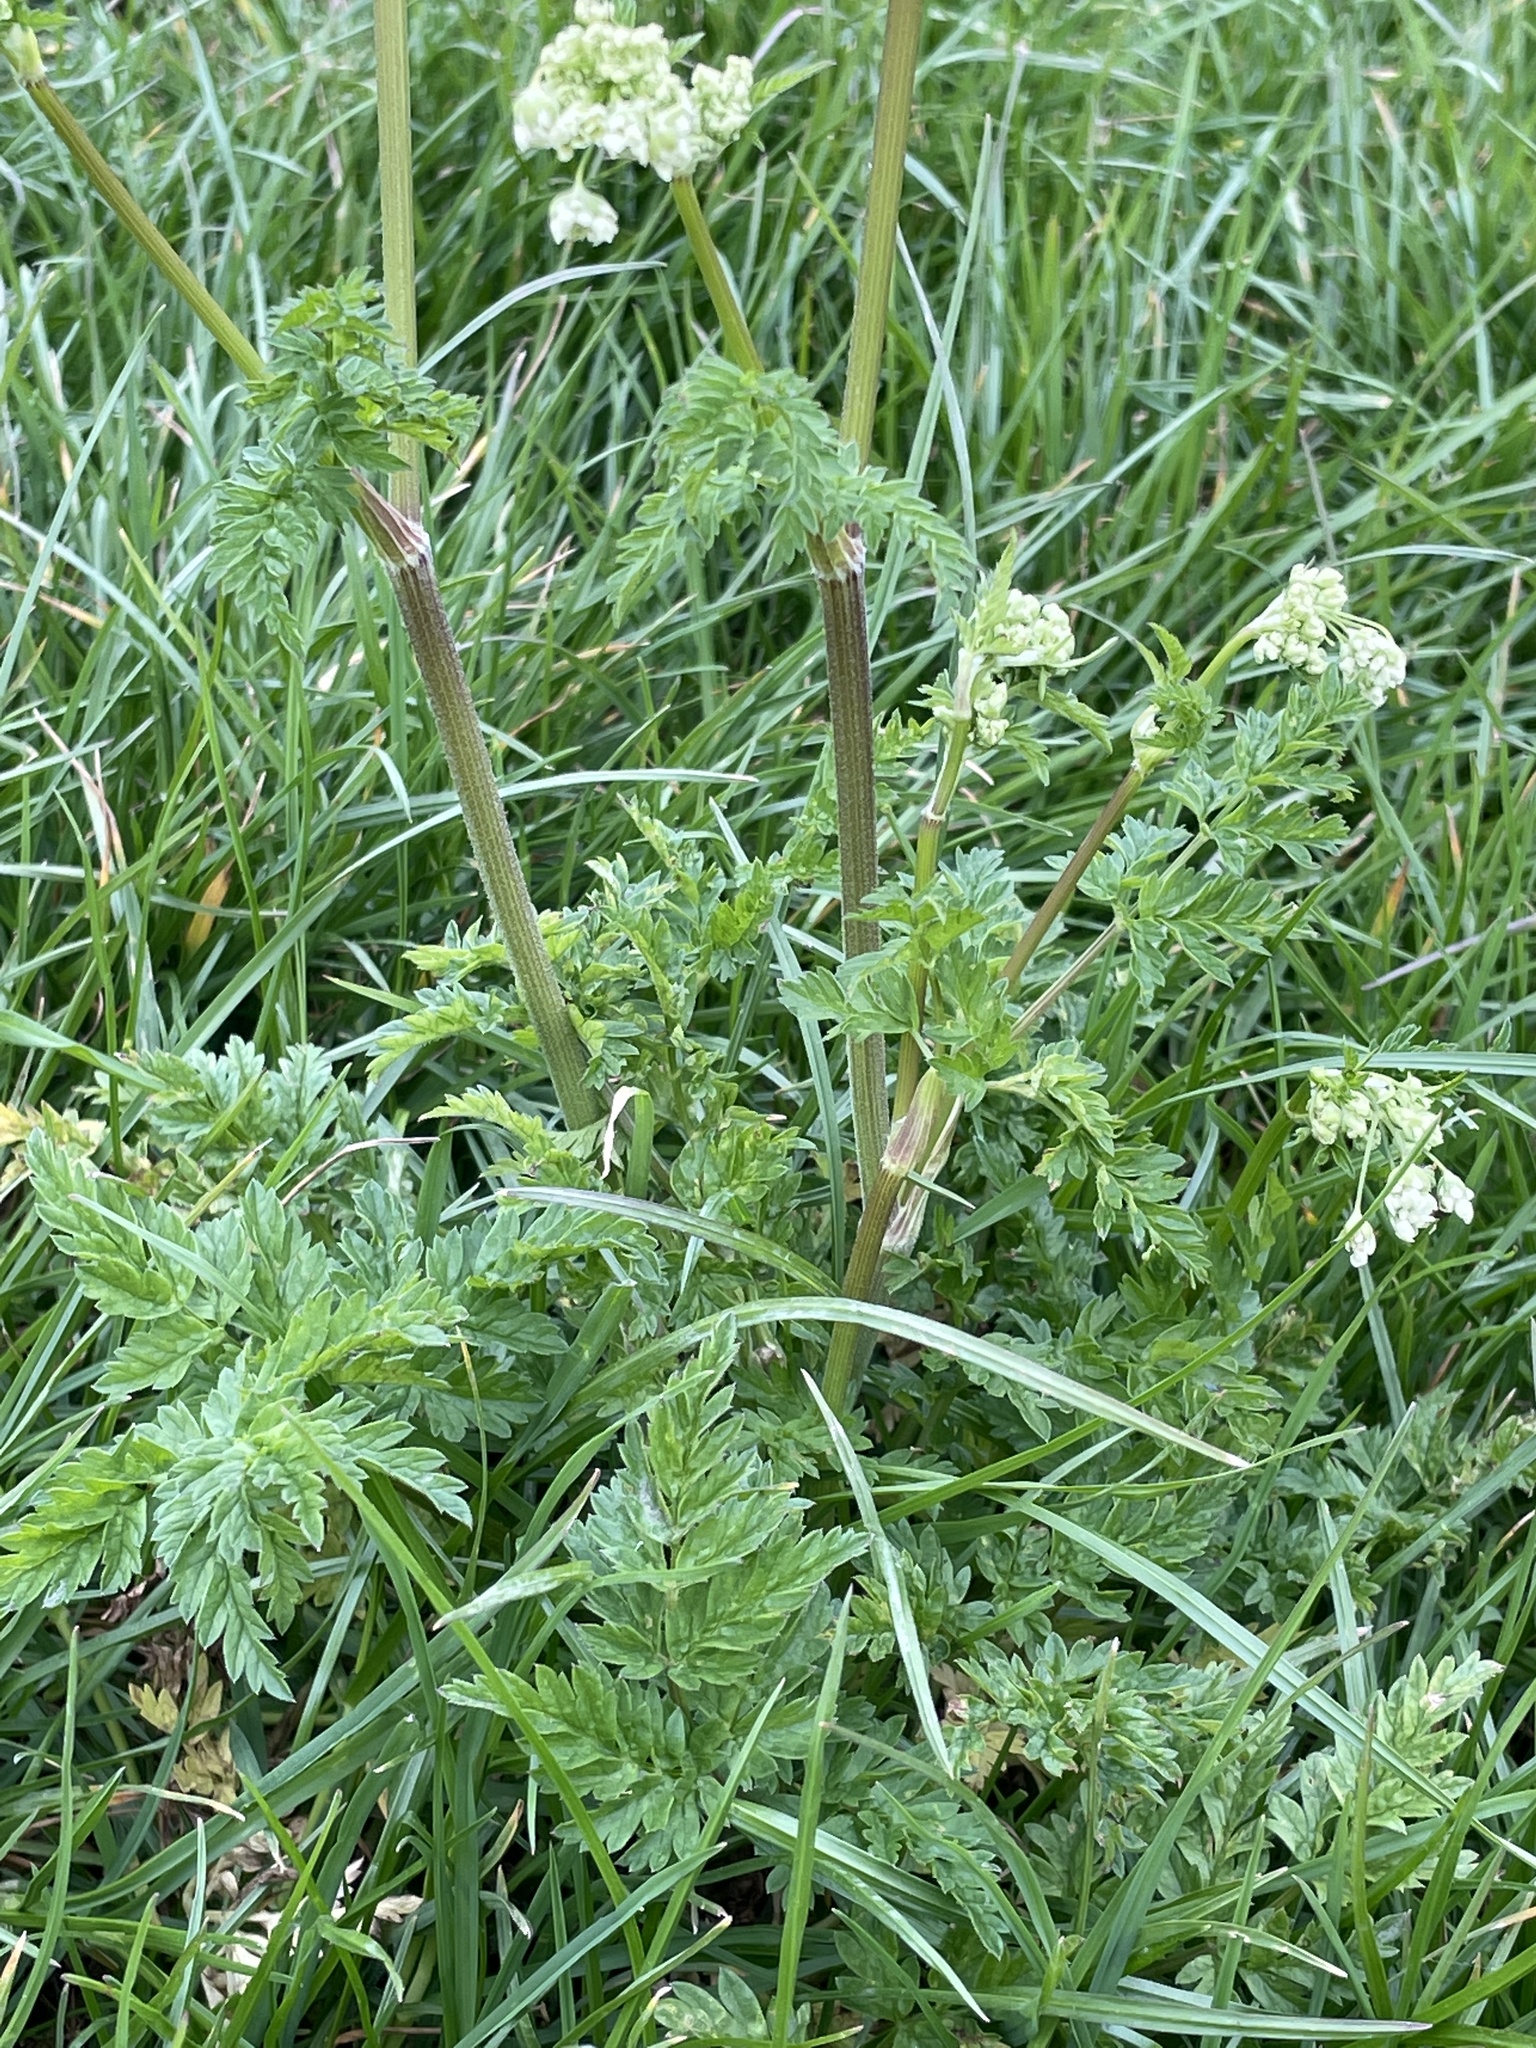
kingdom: Plantae
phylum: Tracheophyta
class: Magnoliopsida
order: Apiales
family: Apiaceae
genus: Anthriscus
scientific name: Anthriscus sylvestris
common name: Cow parsley
